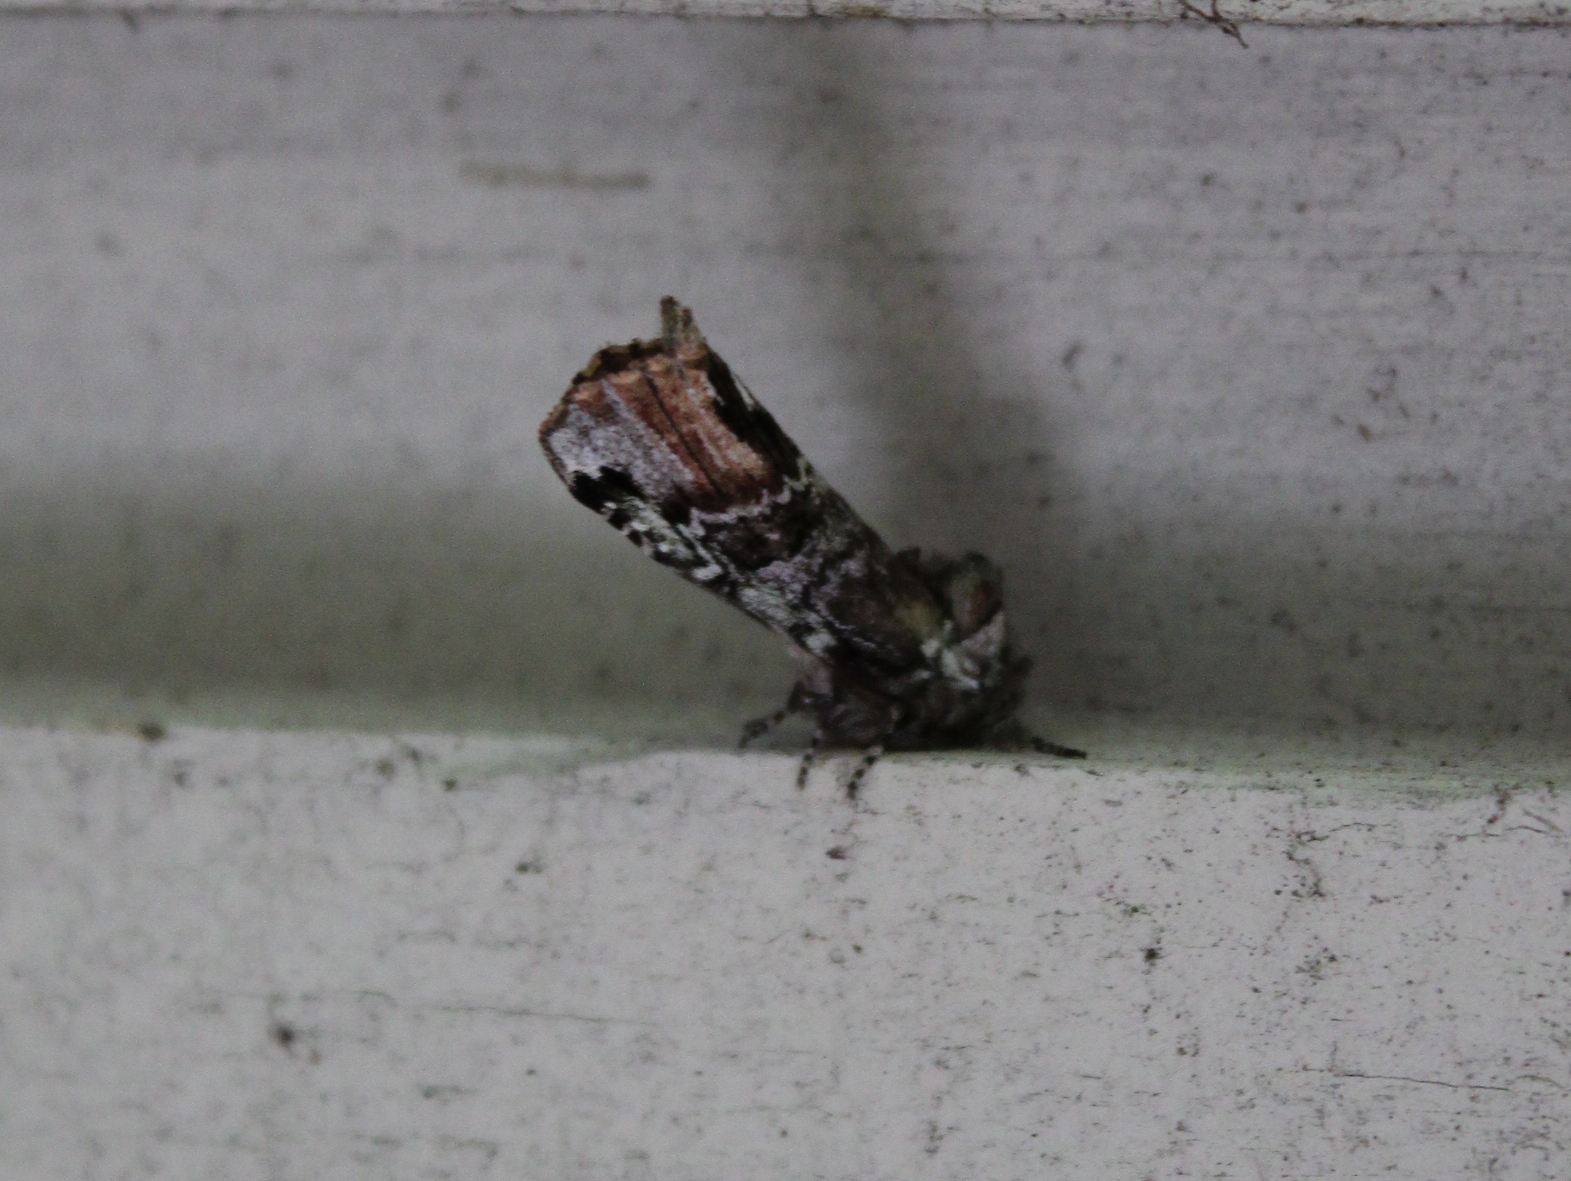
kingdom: Animalia
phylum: Arthropoda
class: Insecta
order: Lepidoptera
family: Notodontidae
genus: Schizura
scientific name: Schizura
